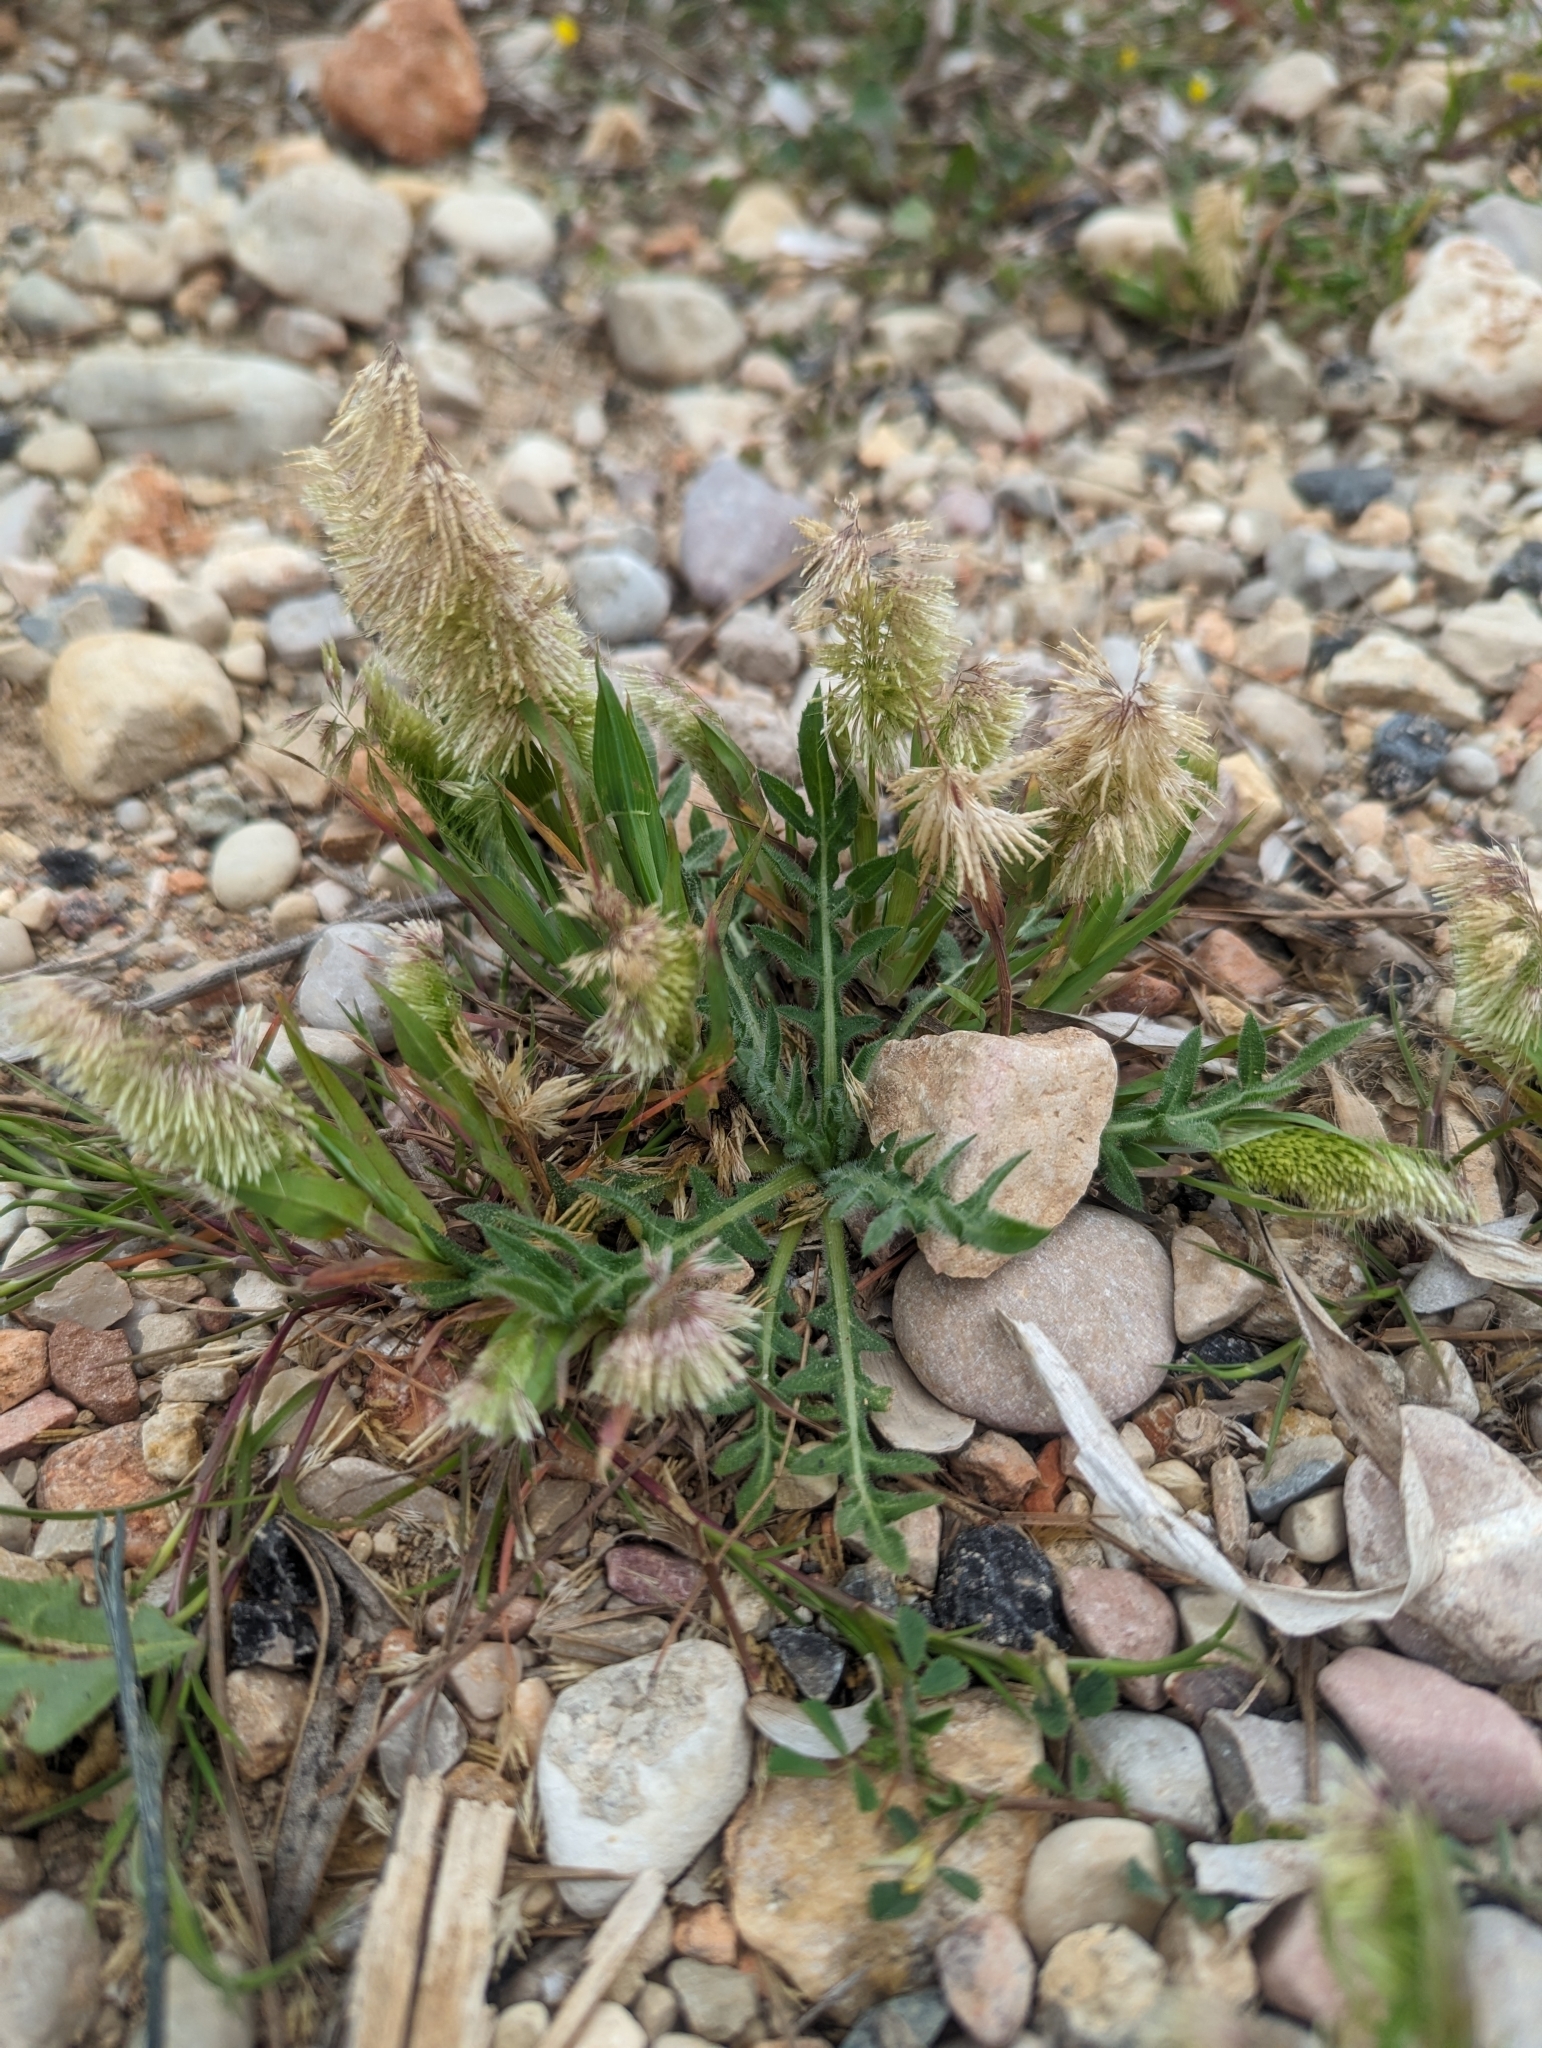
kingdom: Plantae
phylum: Tracheophyta
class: Liliopsida
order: Poales
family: Poaceae
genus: Lamarckia
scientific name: Lamarckia aurea
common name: Golden dog's-tail
